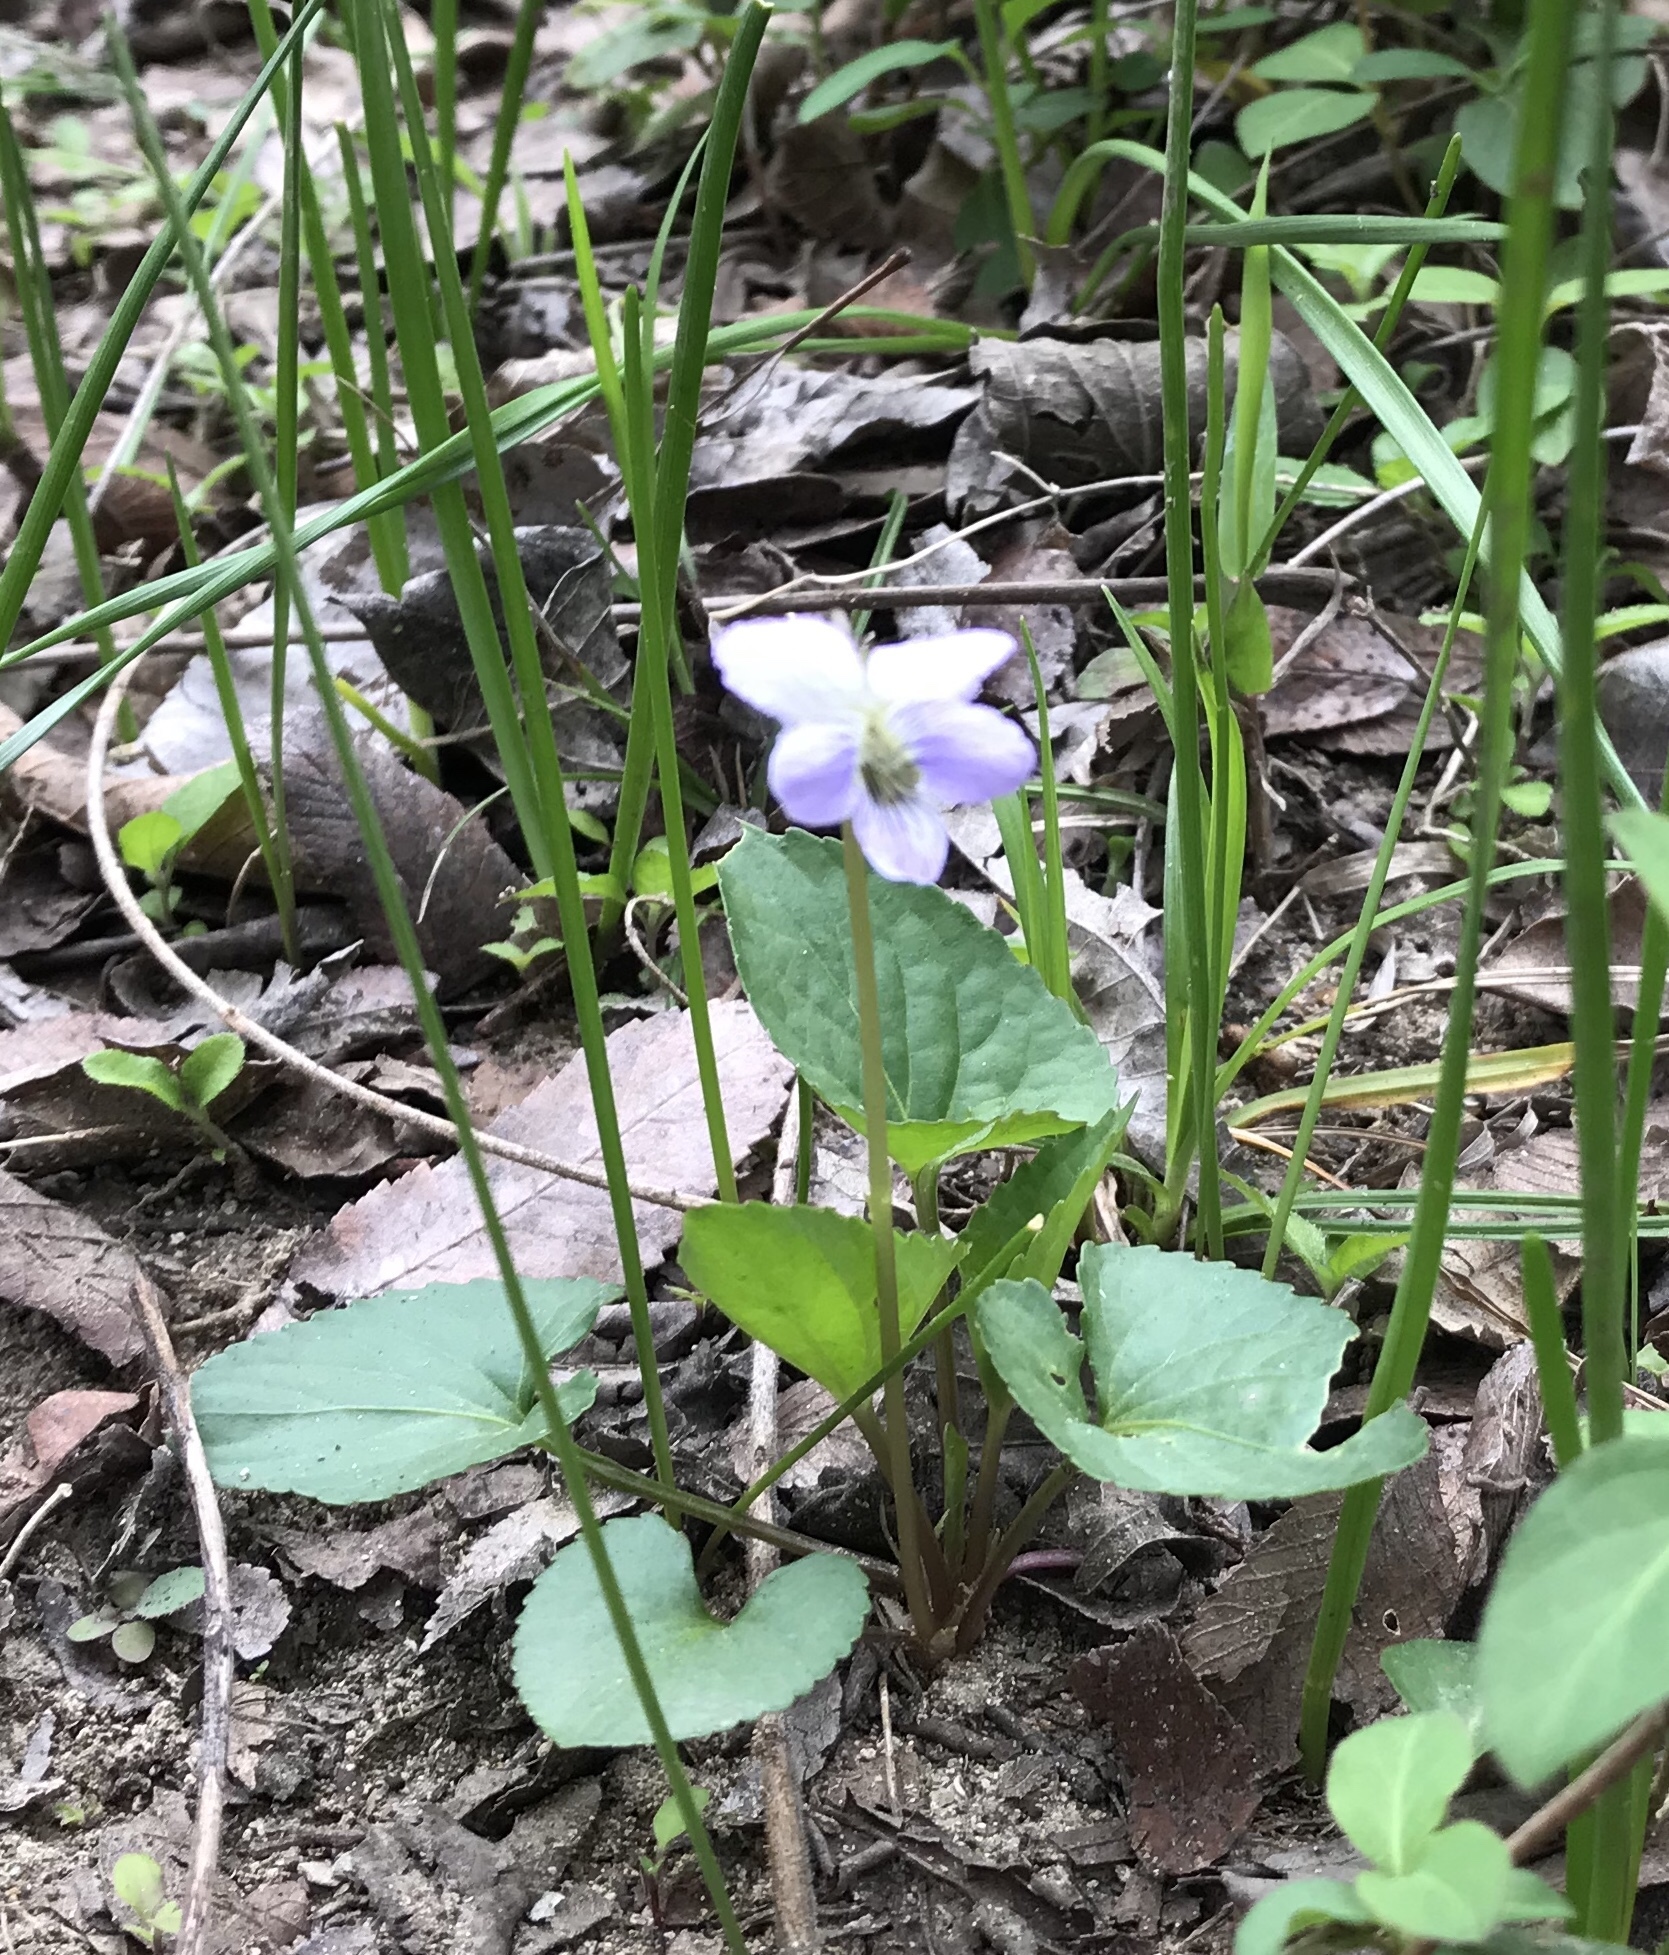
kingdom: Plantae
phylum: Tracheophyta
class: Magnoliopsida
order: Malpighiales
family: Violaceae
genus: Viola
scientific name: Viola sororia
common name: Dooryard violet
